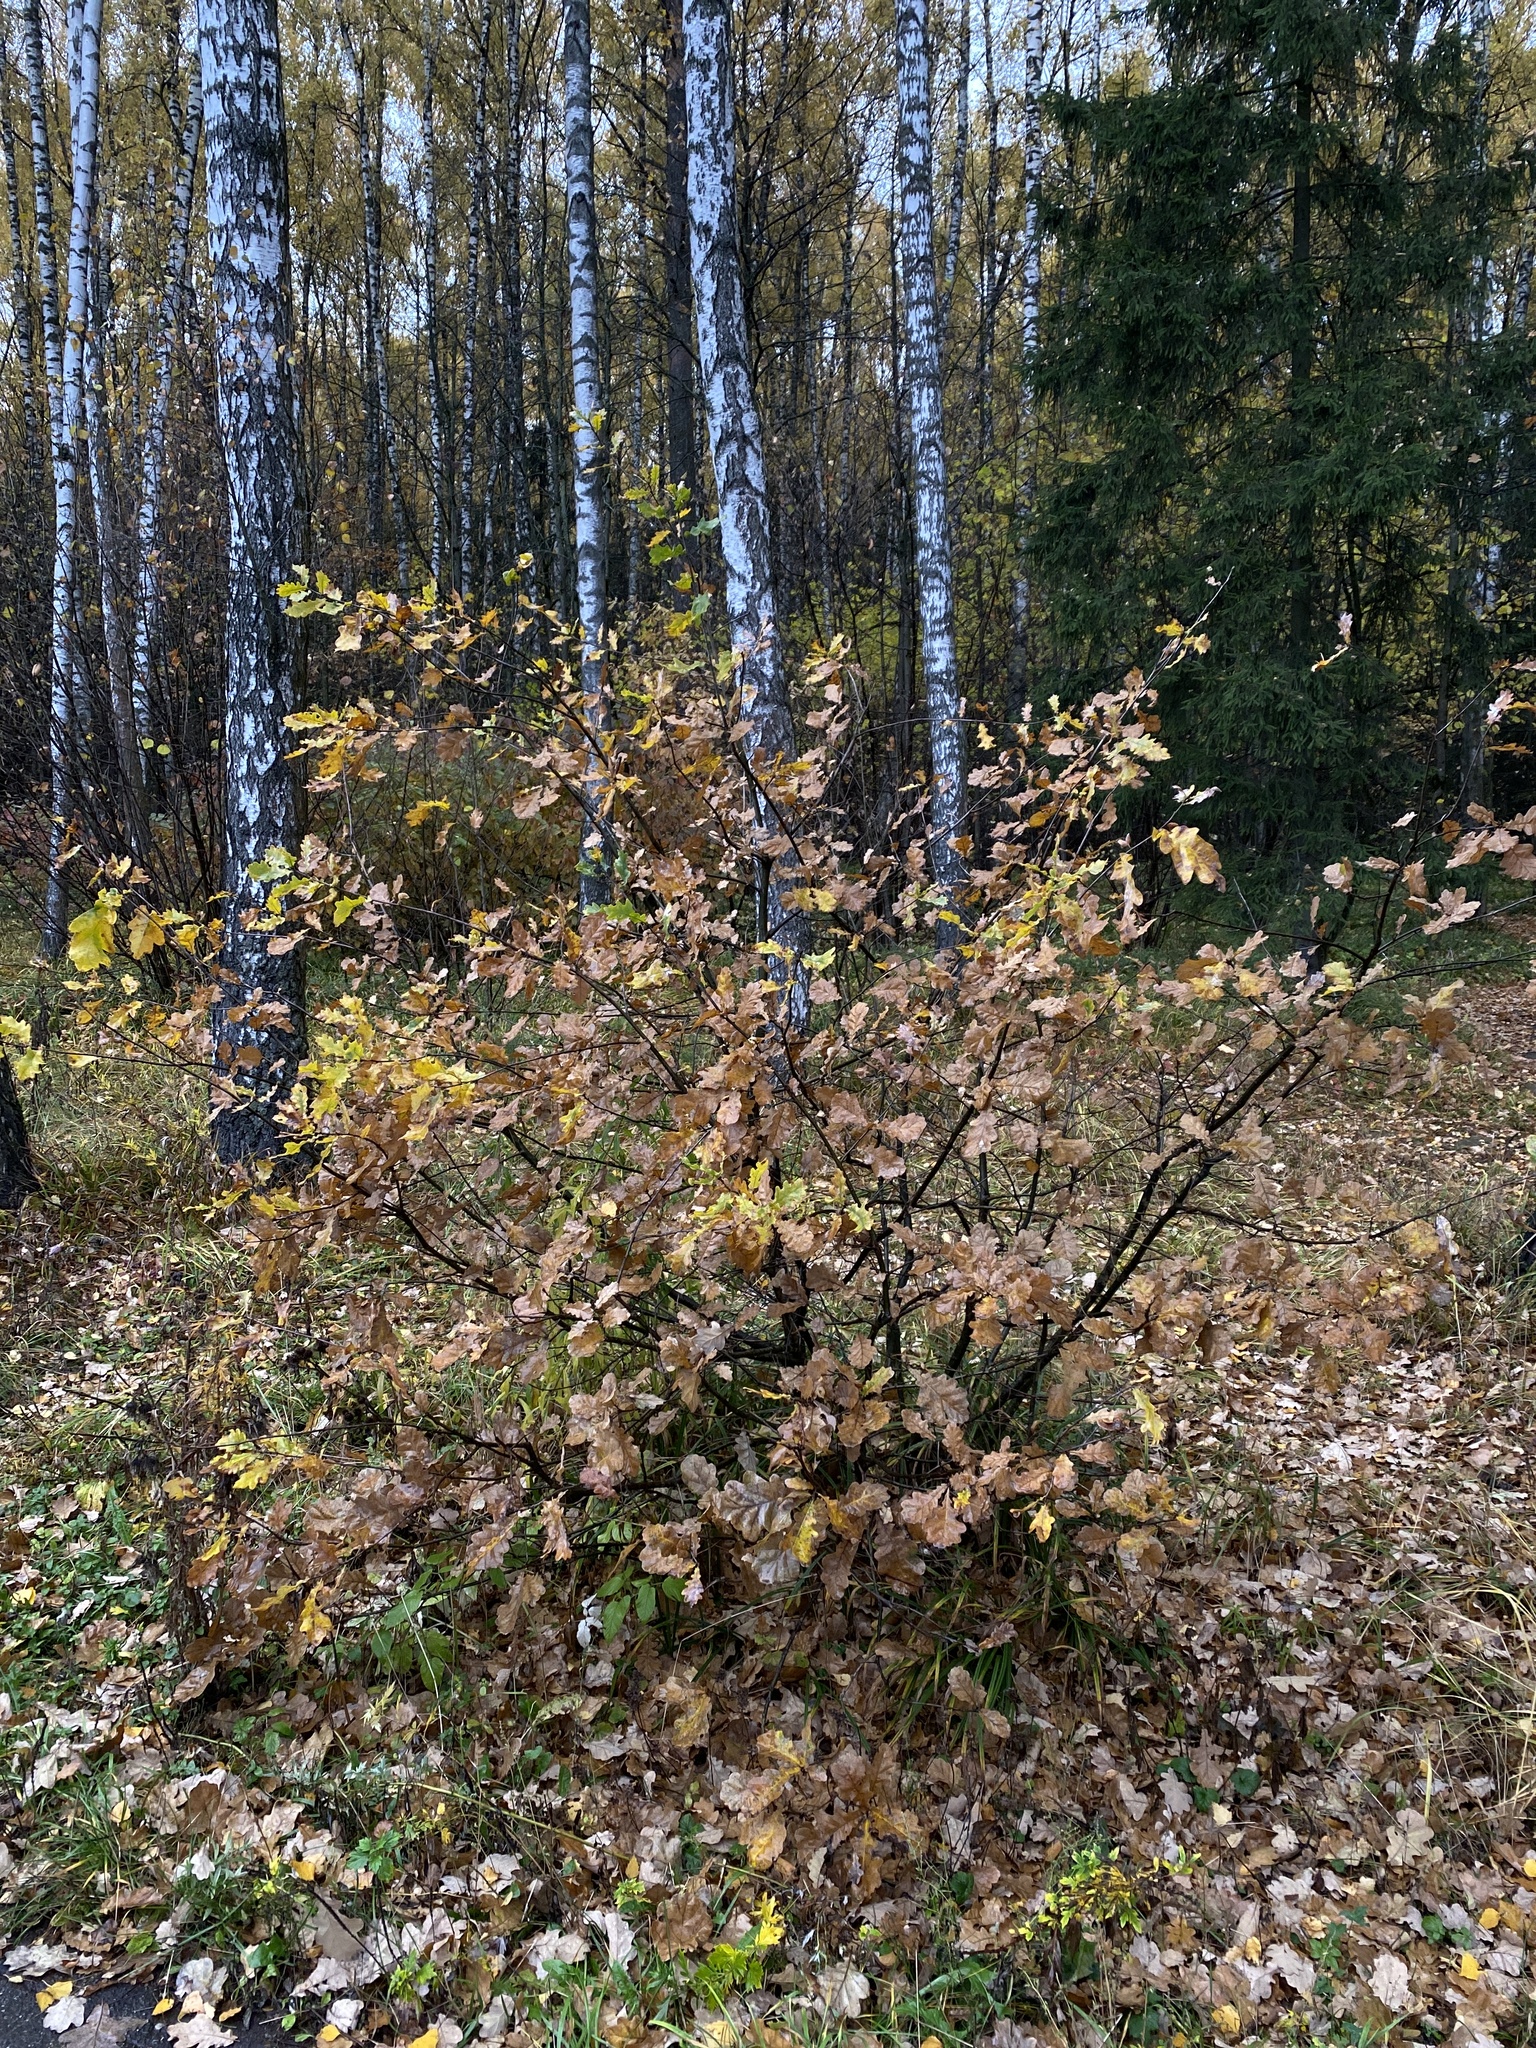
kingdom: Plantae
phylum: Tracheophyta
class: Magnoliopsida
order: Fagales
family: Fagaceae
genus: Quercus
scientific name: Quercus robur
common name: Pedunculate oak
